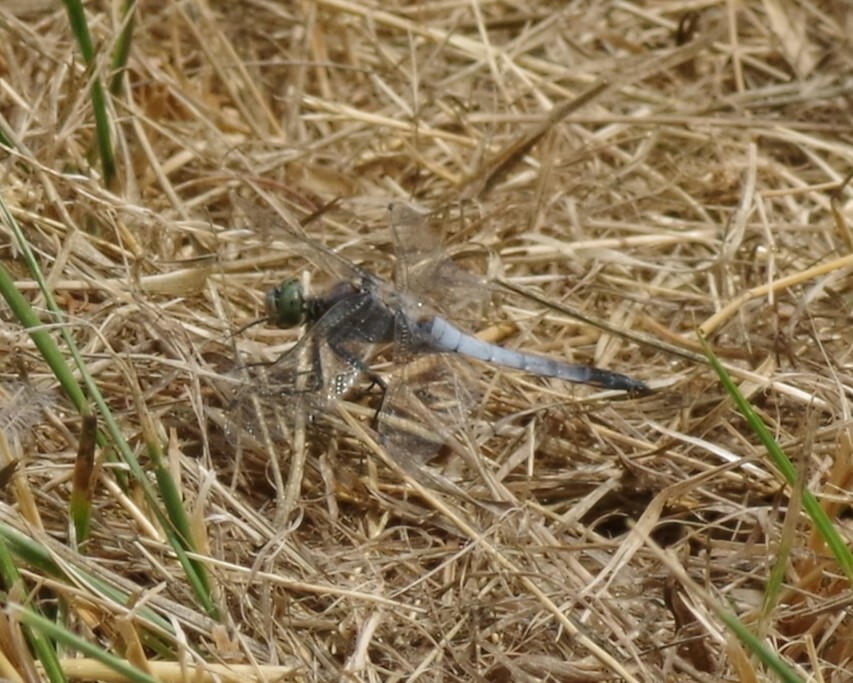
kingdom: Animalia
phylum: Arthropoda
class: Insecta
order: Odonata
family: Libellulidae
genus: Orthetrum
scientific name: Orthetrum cancellatum
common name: Black-tailed skimmer
